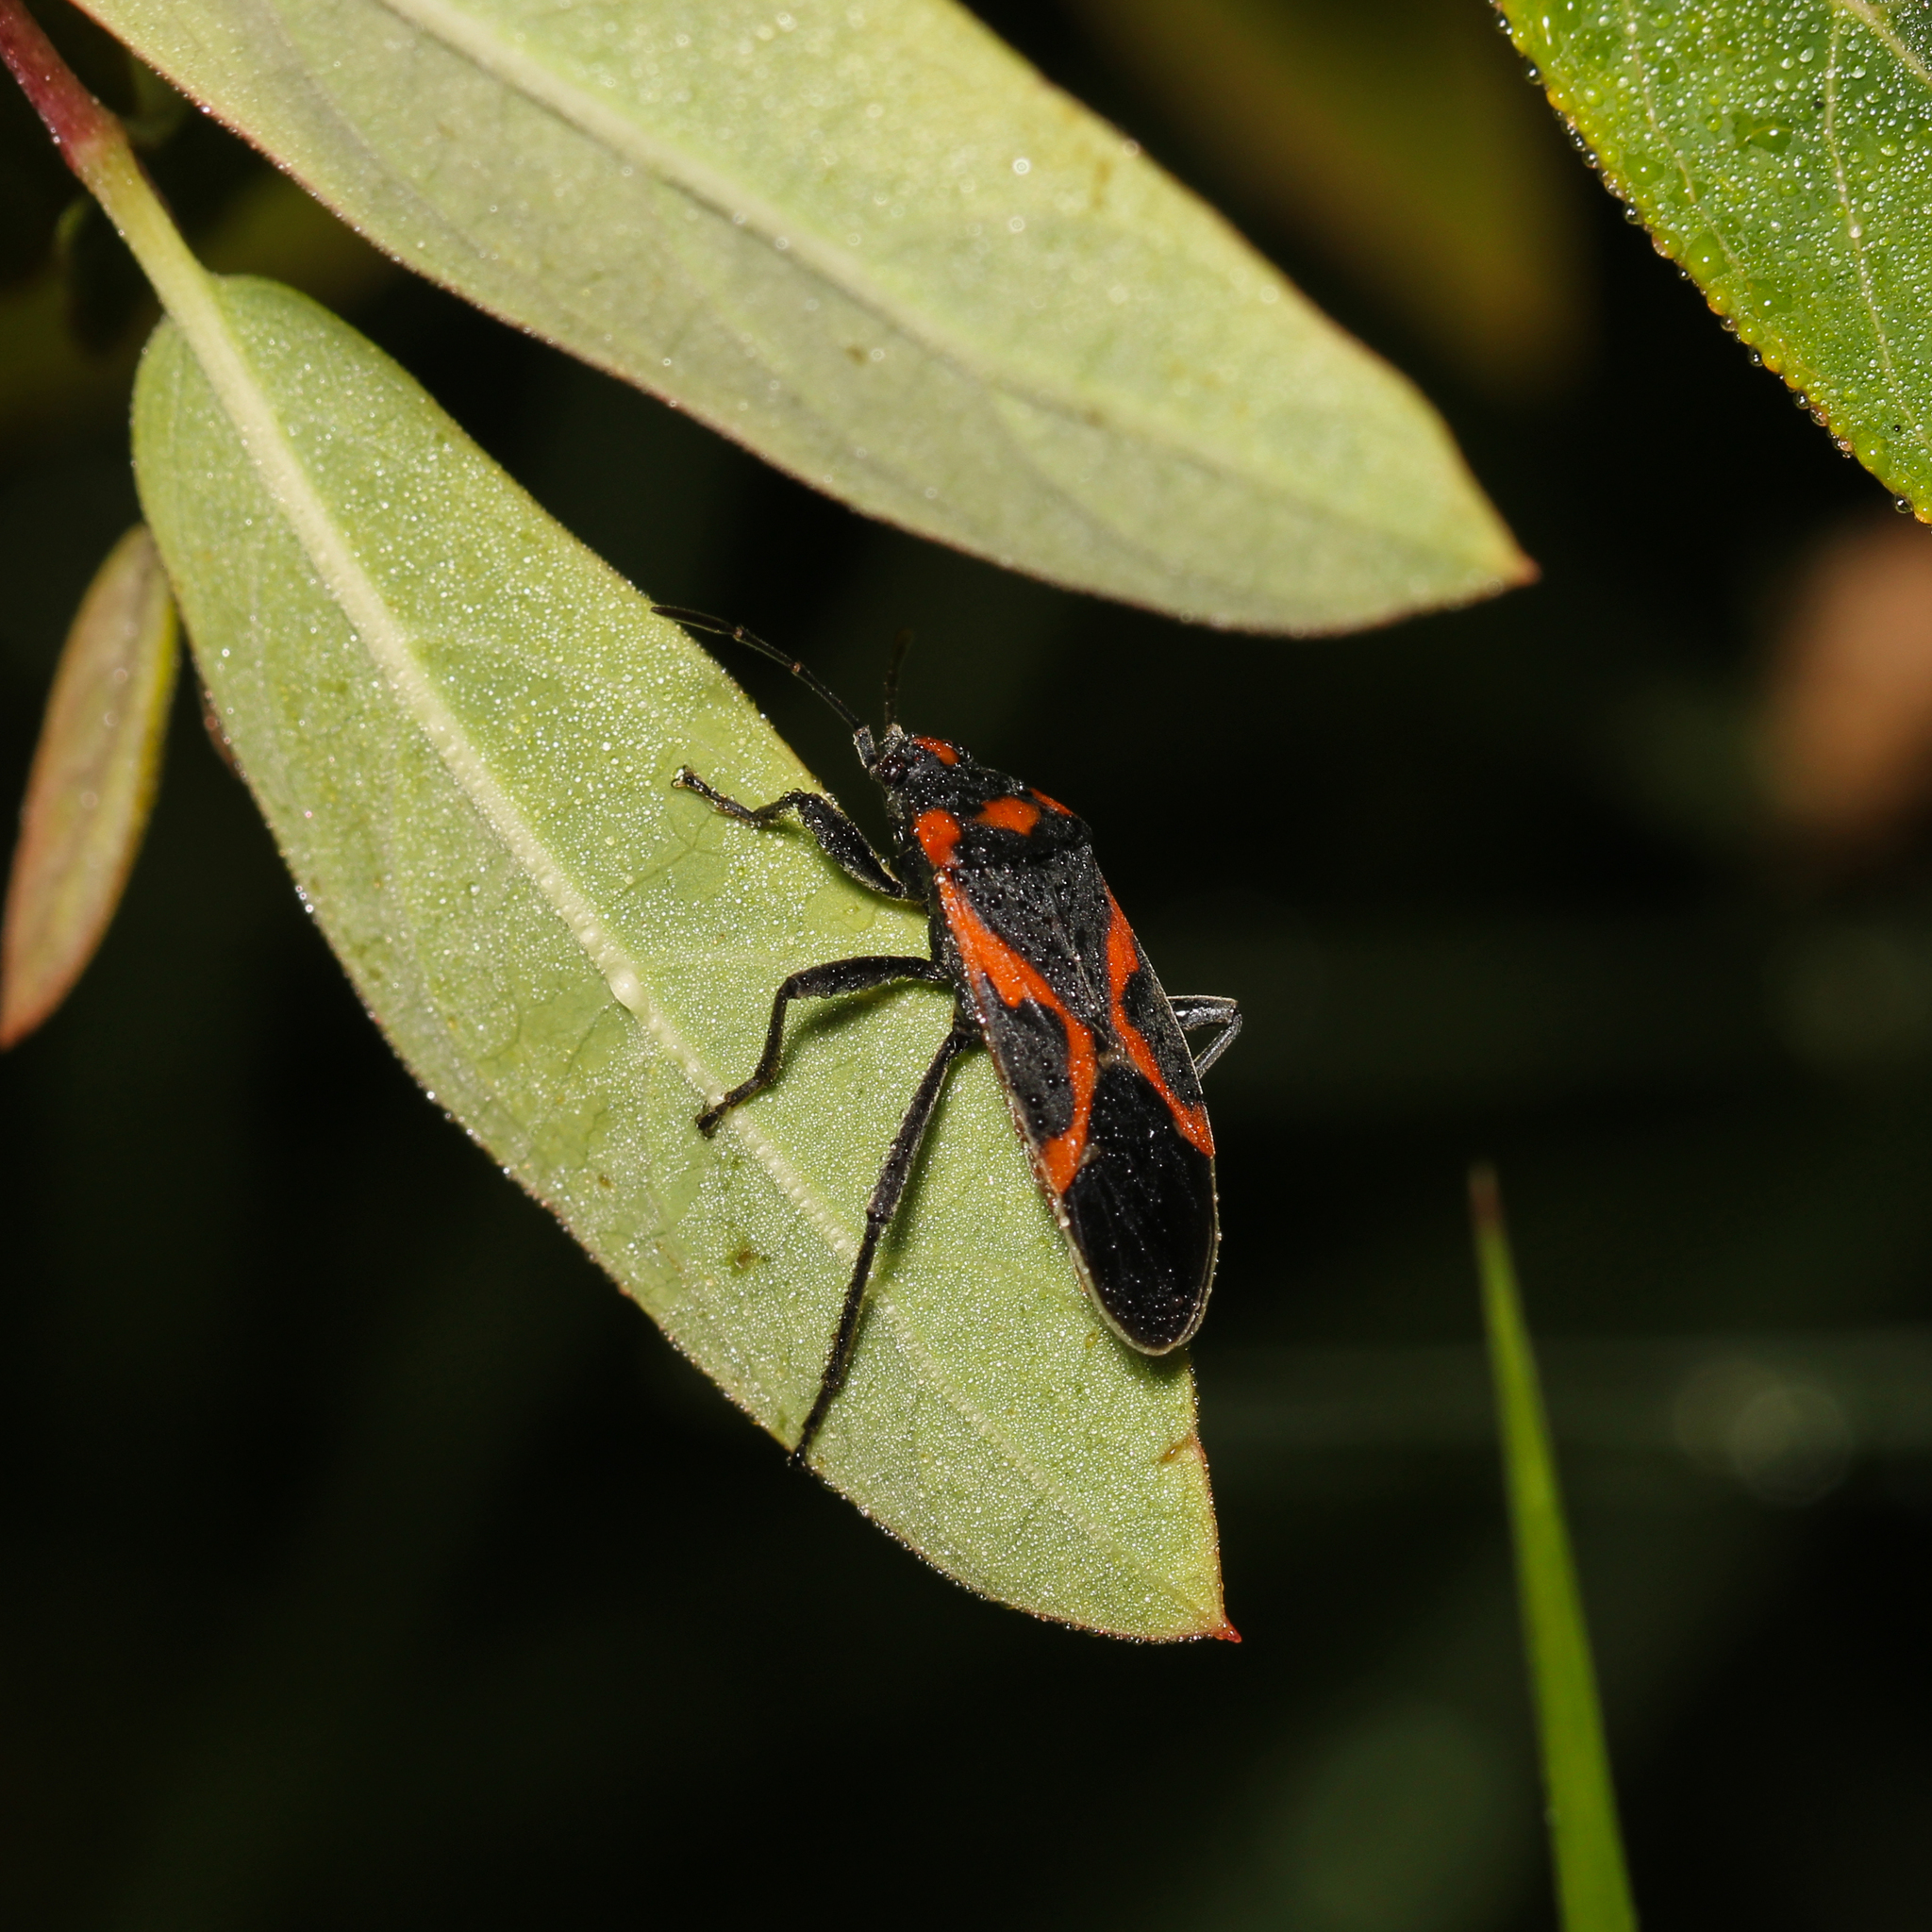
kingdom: Animalia
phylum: Arthropoda
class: Insecta
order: Hemiptera
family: Lygaeidae
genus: Lygaeus
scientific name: Lygaeus kalmii
